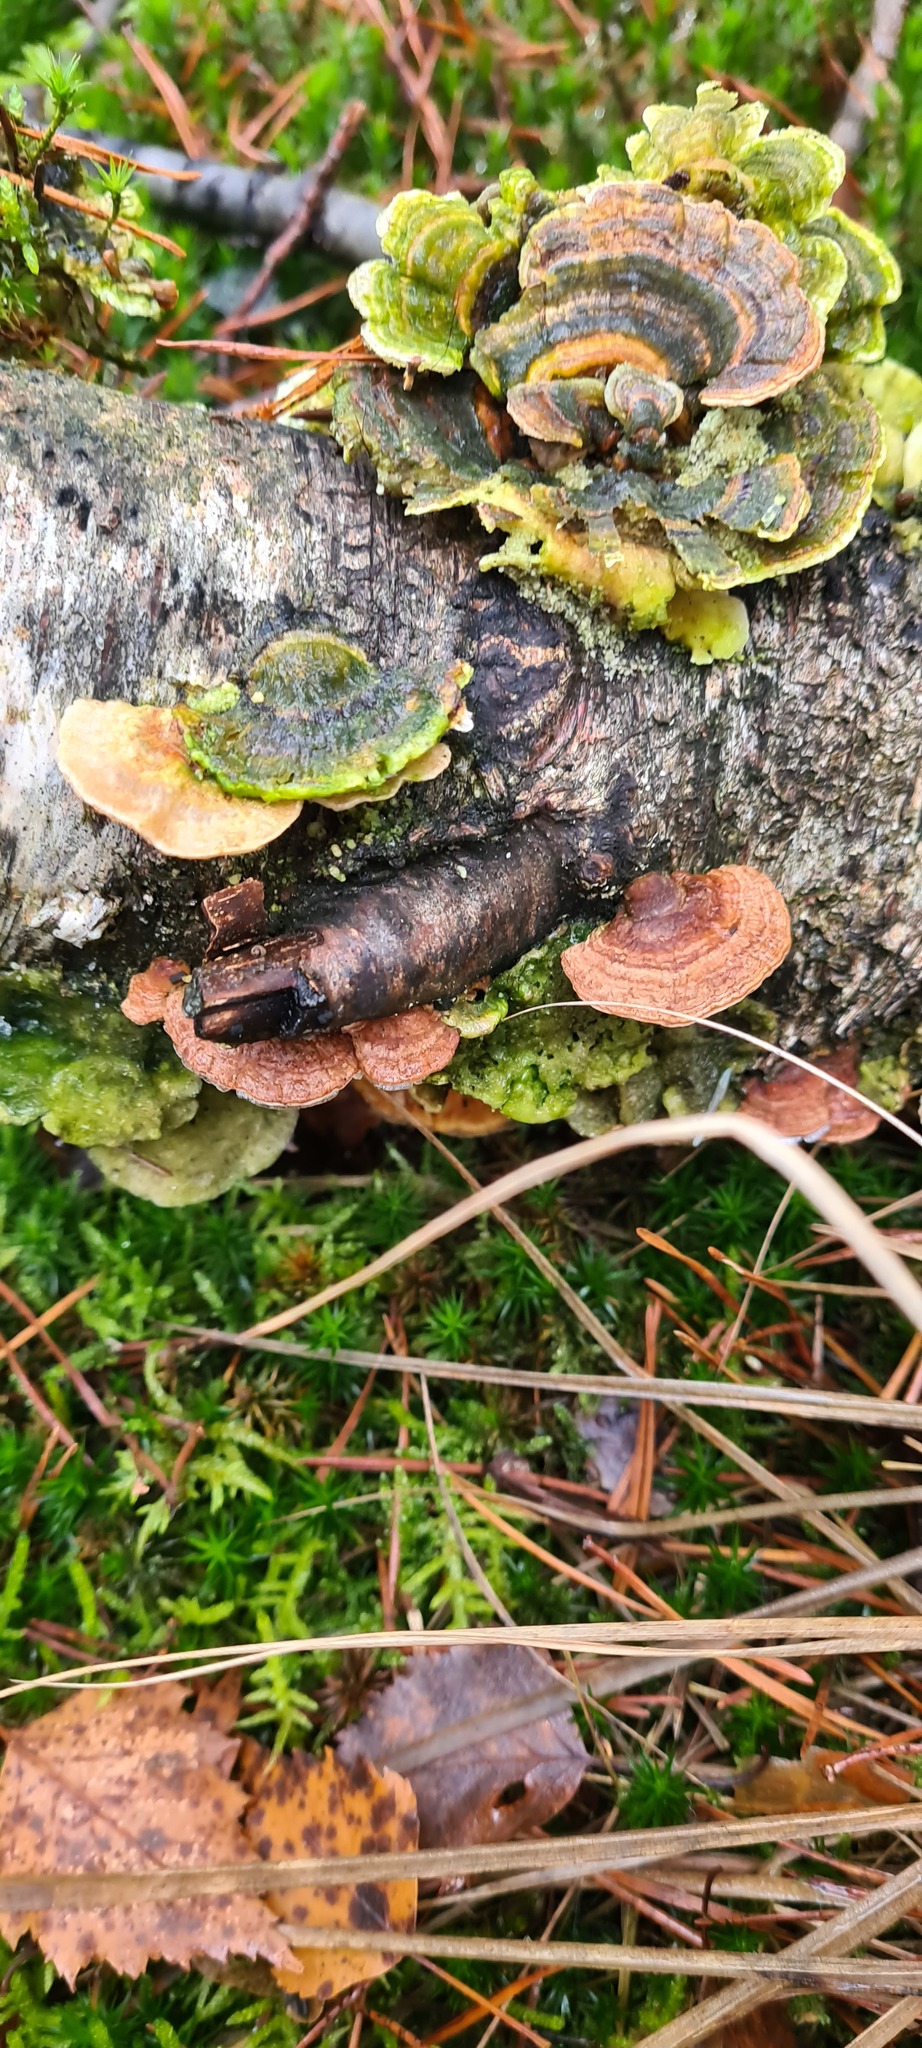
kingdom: Fungi
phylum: Basidiomycota
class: Agaricomycetes
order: Polyporales
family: Polyporaceae
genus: Daedaleopsis
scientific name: Daedaleopsis confragosa
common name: Blushing bracket
